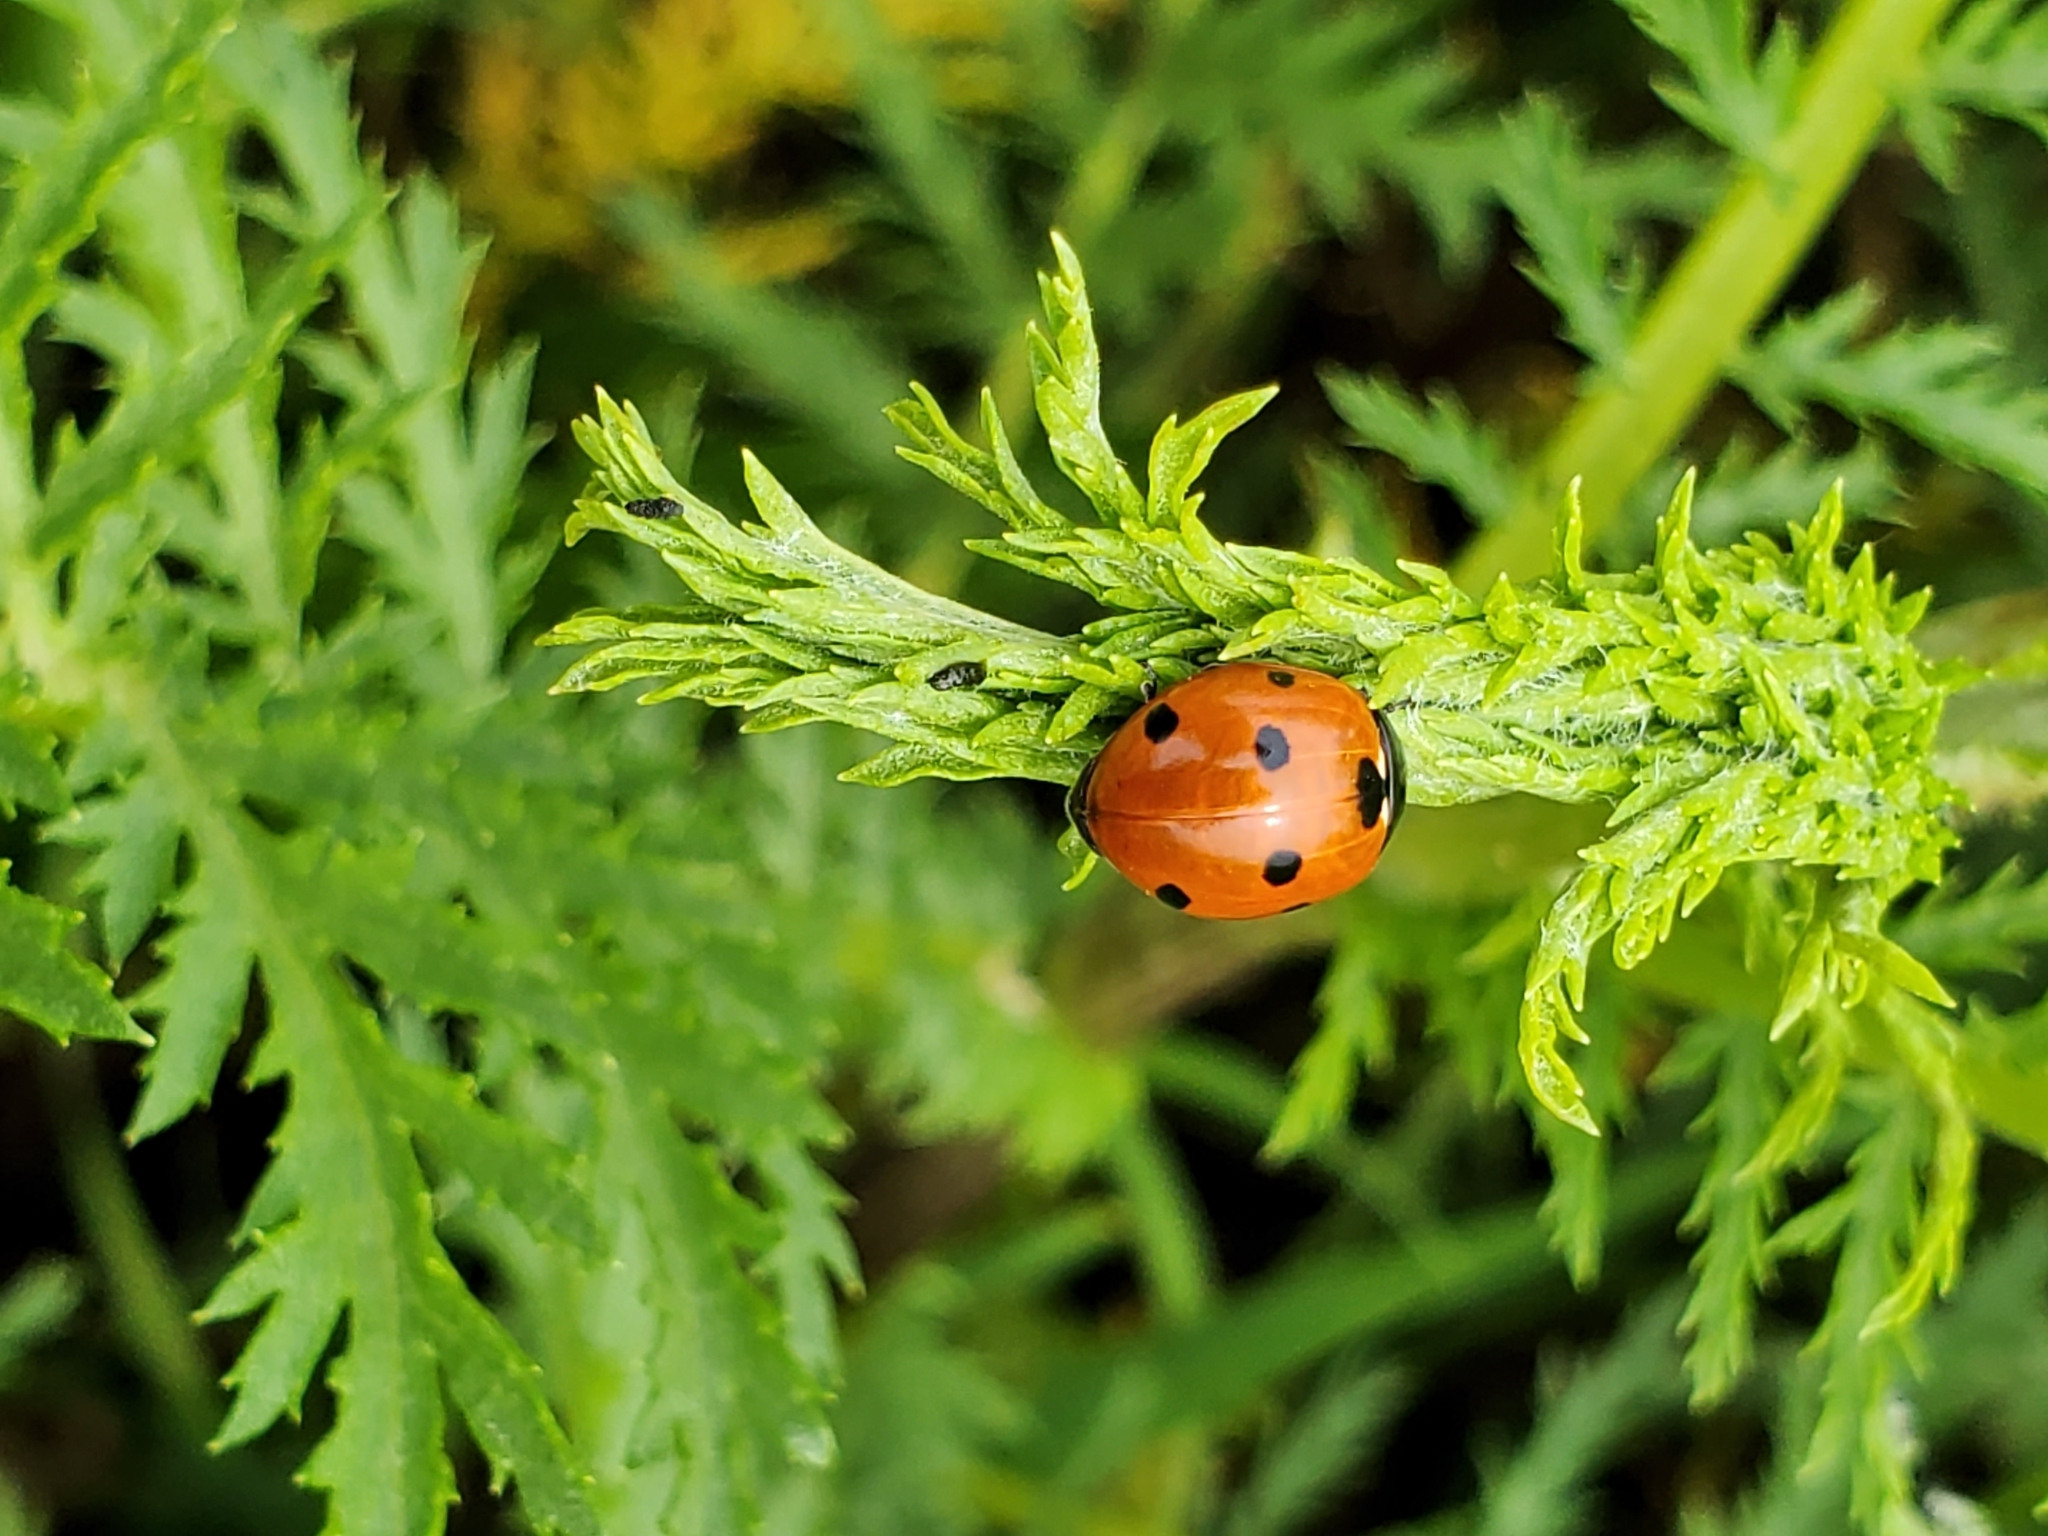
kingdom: Animalia
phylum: Arthropoda
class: Insecta
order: Coleoptera
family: Coccinellidae
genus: Coccinella
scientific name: Coccinella septempunctata
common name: Sevenspotted lady beetle
